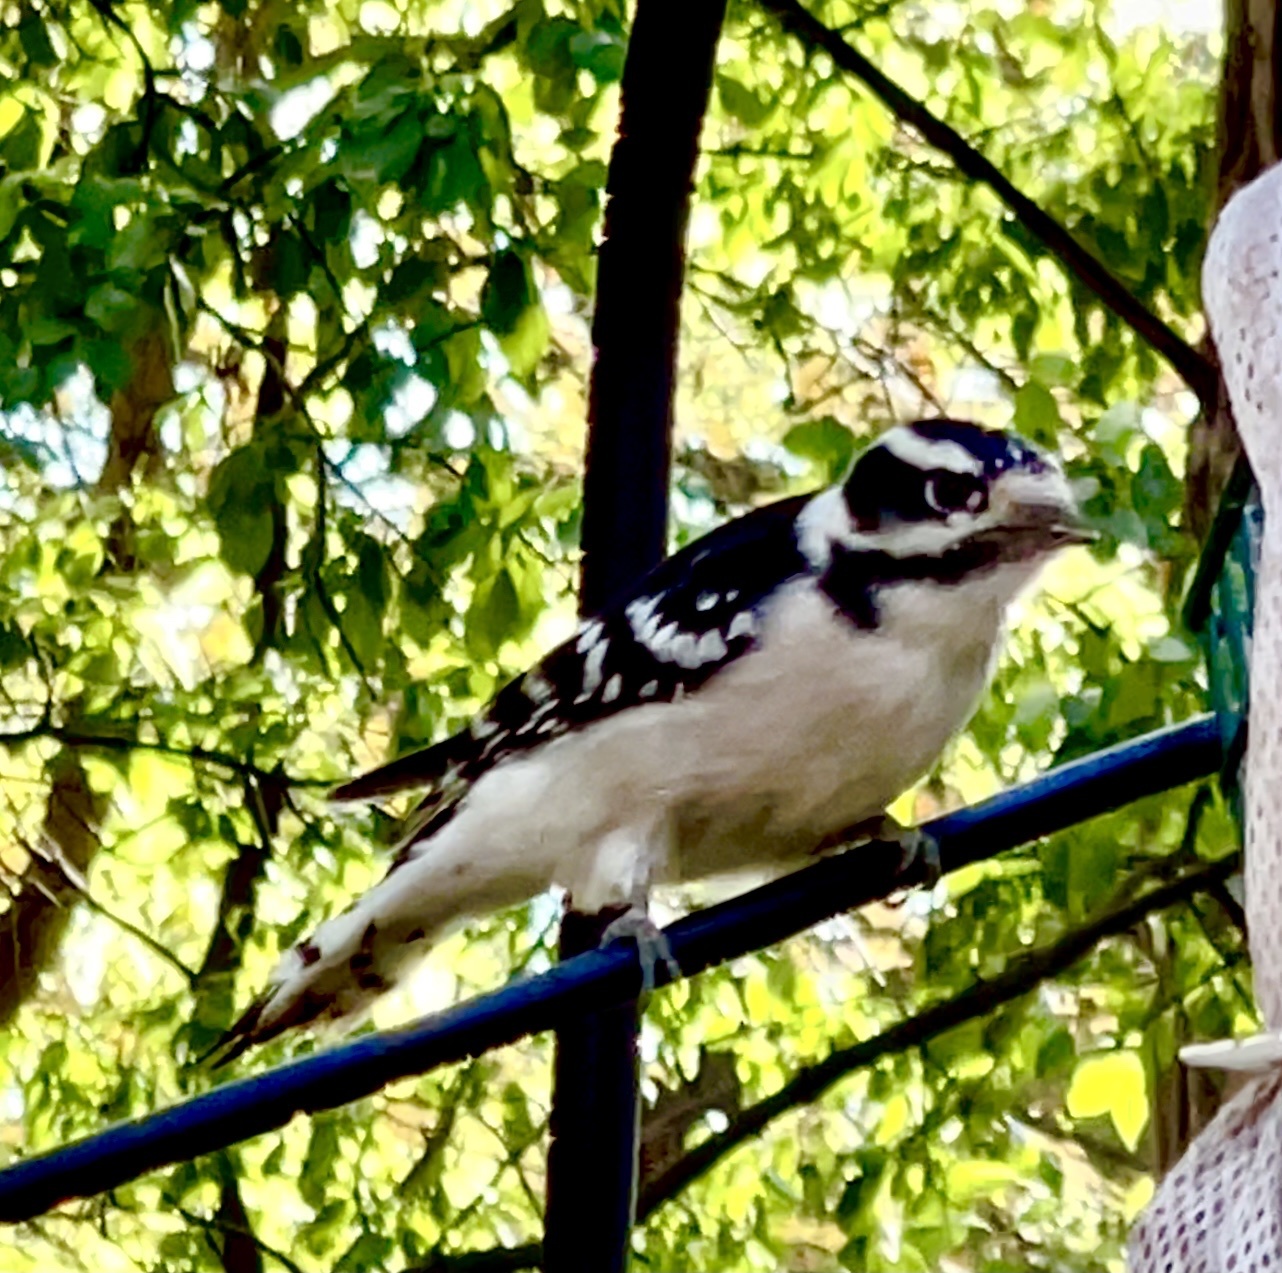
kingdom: Animalia
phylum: Chordata
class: Aves
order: Piciformes
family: Picidae
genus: Dryobates
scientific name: Dryobates pubescens
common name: Downy woodpecker
